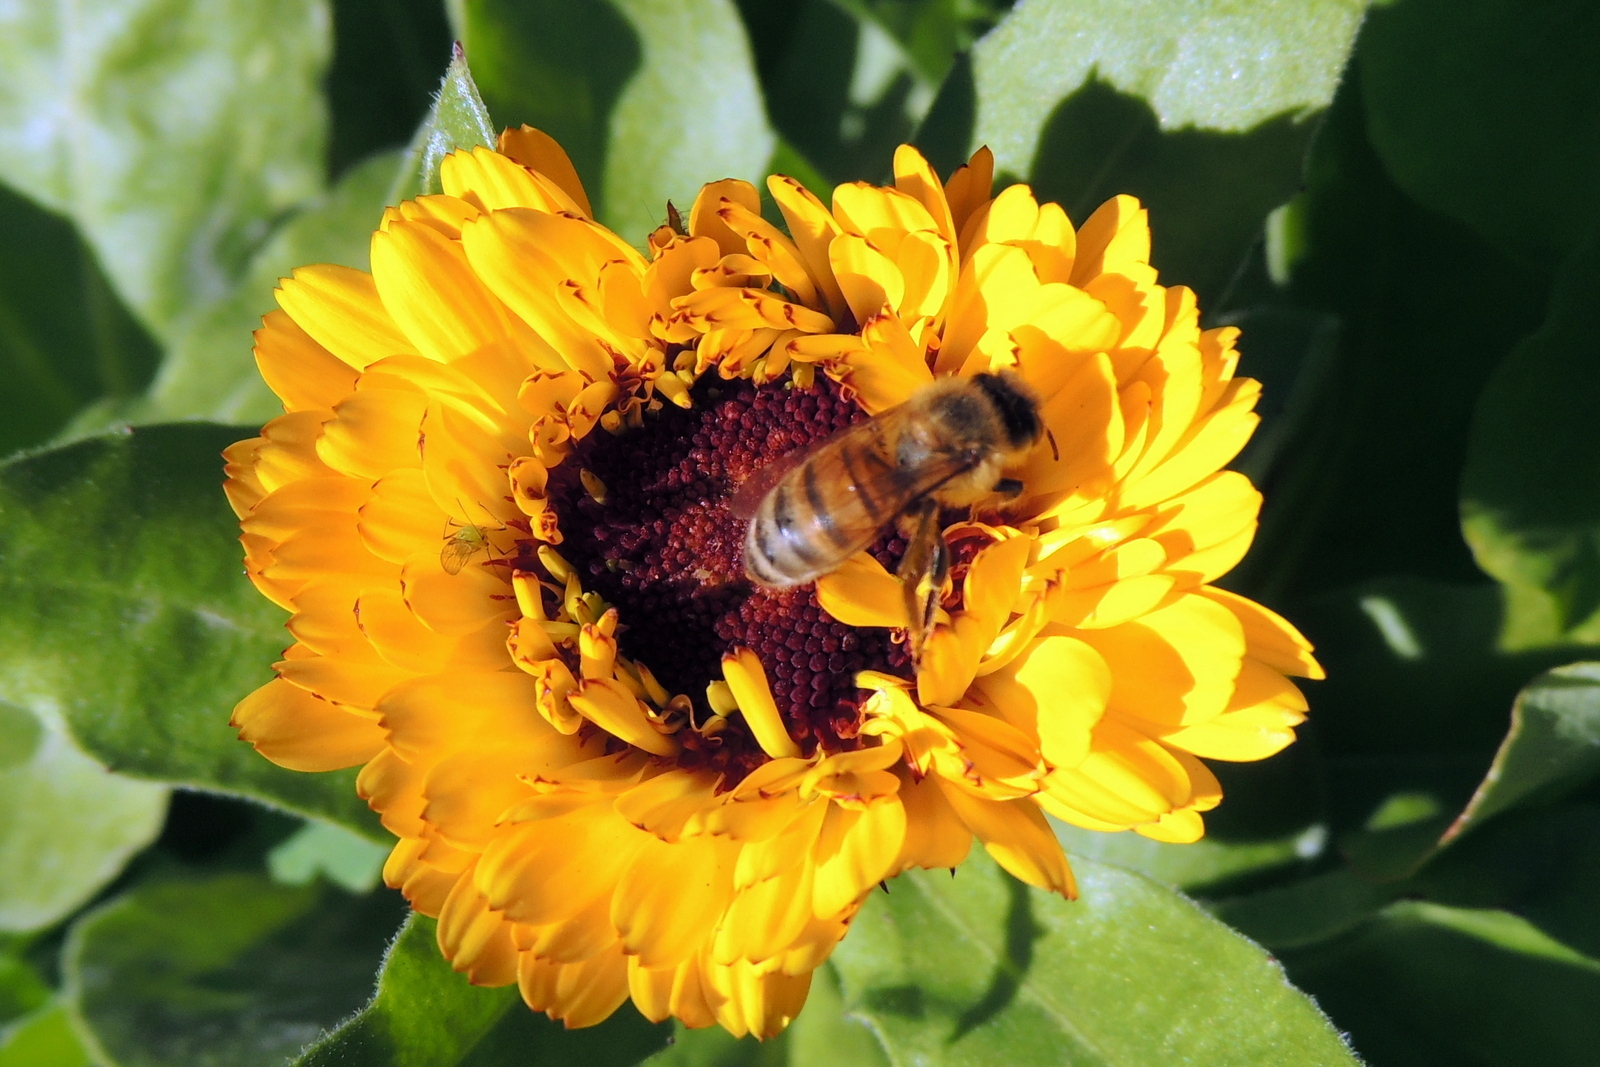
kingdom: Animalia
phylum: Arthropoda
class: Insecta
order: Hymenoptera
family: Apidae
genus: Apis
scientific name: Apis mellifera
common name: Honey bee
